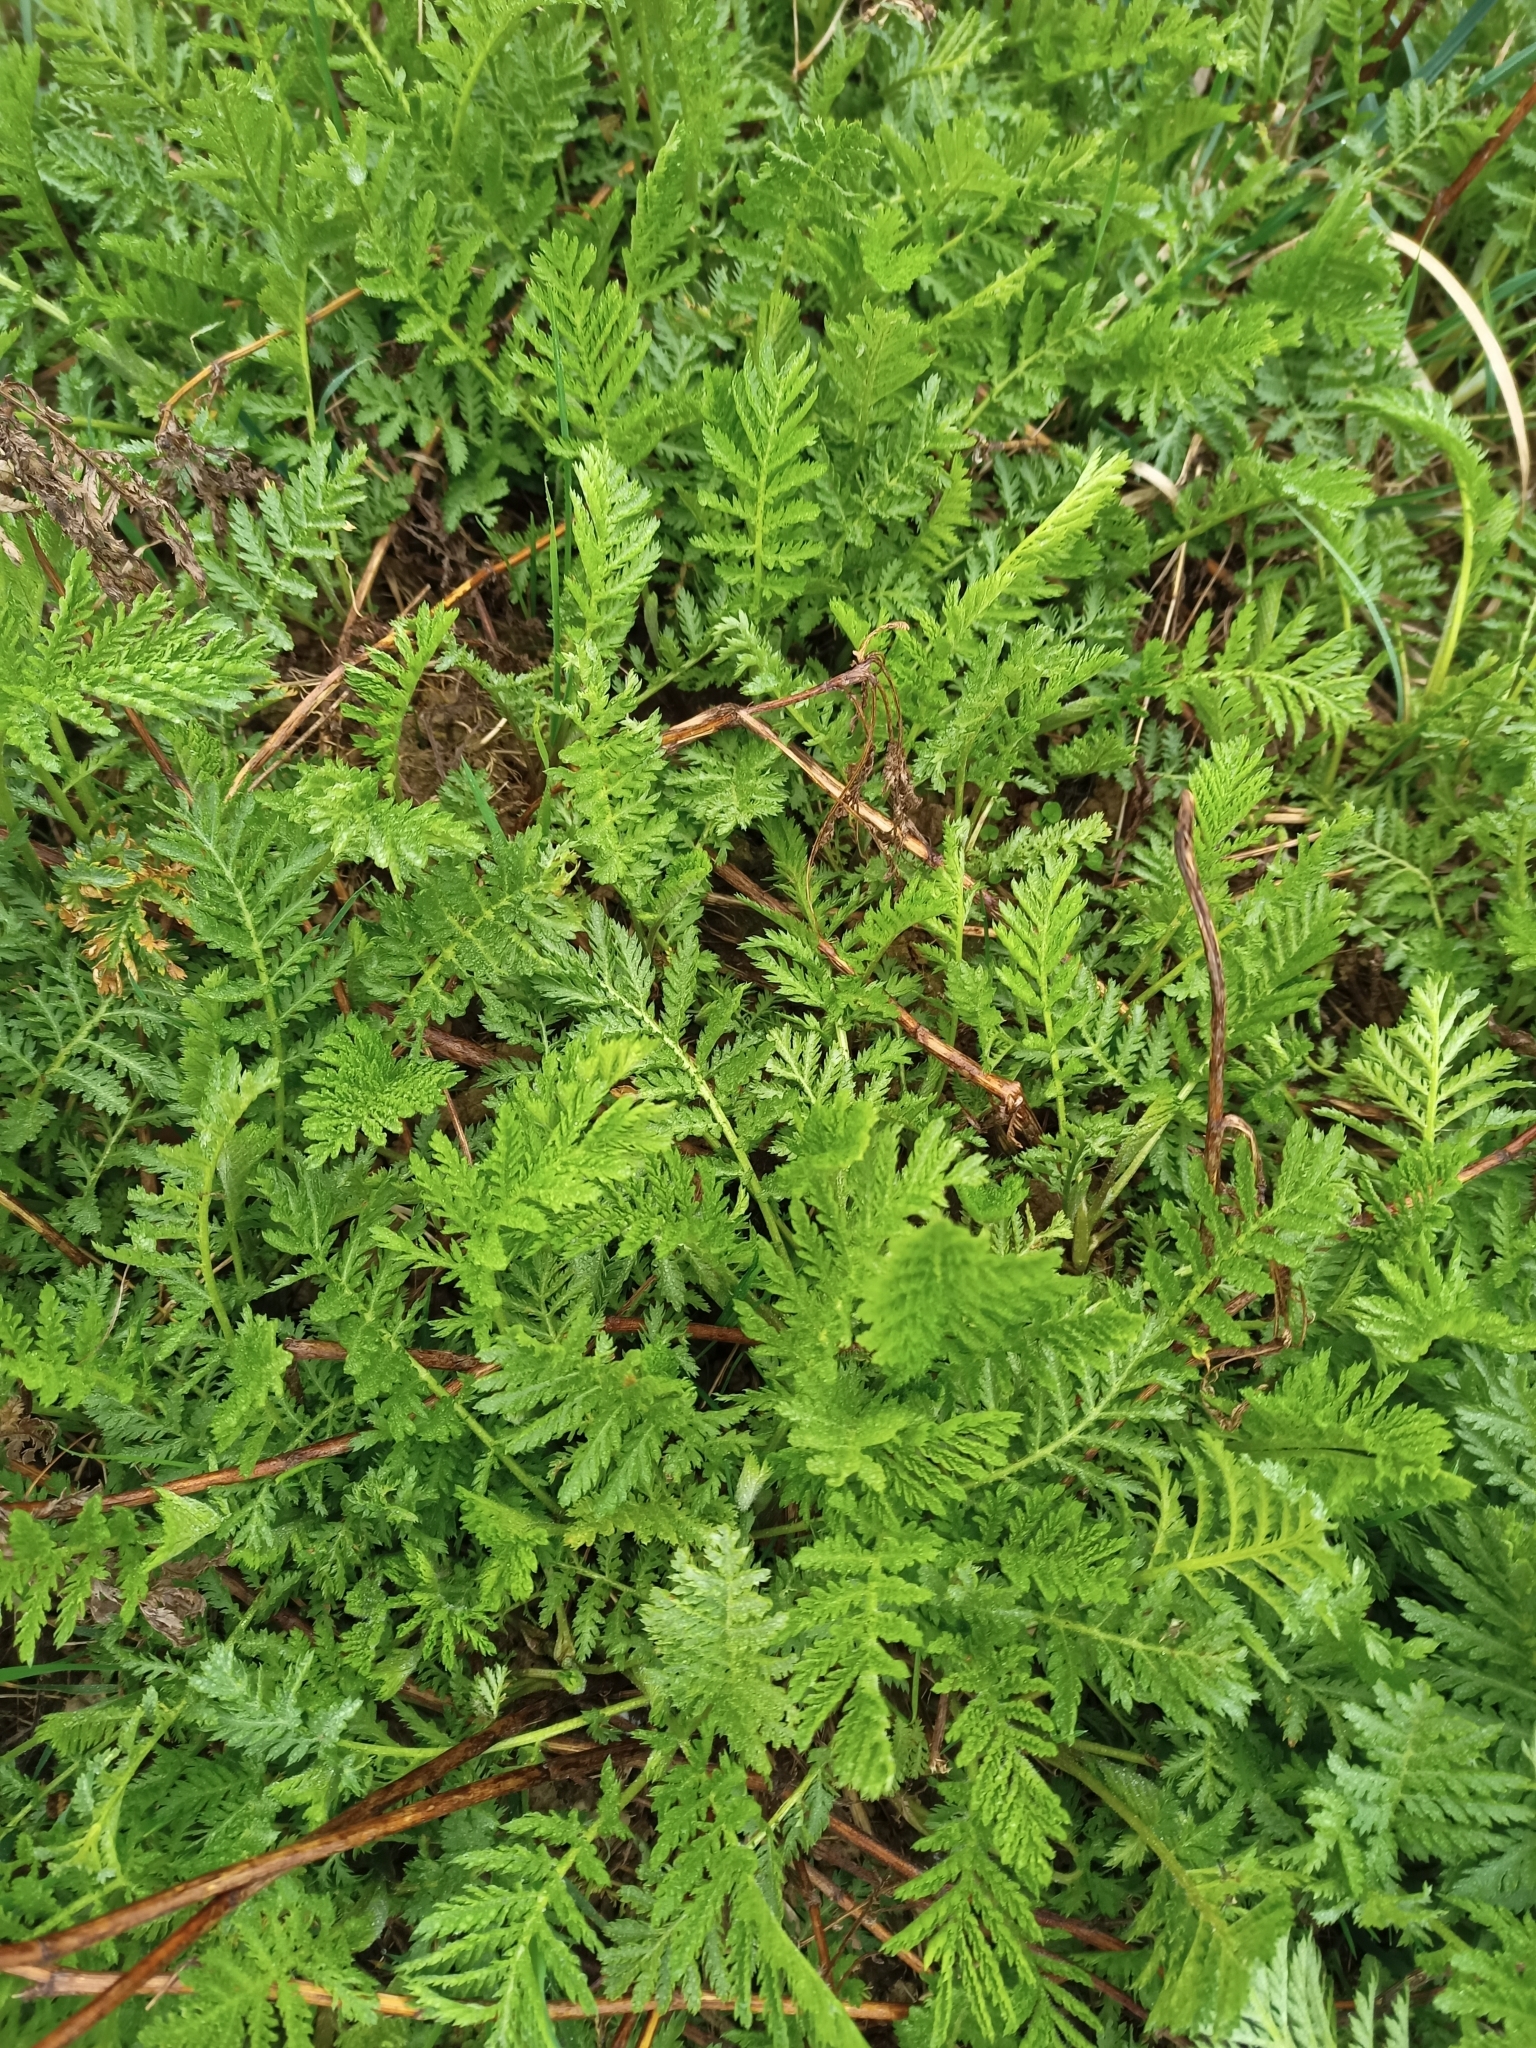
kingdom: Plantae
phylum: Tracheophyta
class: Magnoliopsida
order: Asterales
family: Asteraceae
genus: Tanacetum
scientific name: Tanacetum vulgare
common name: Common tansy
